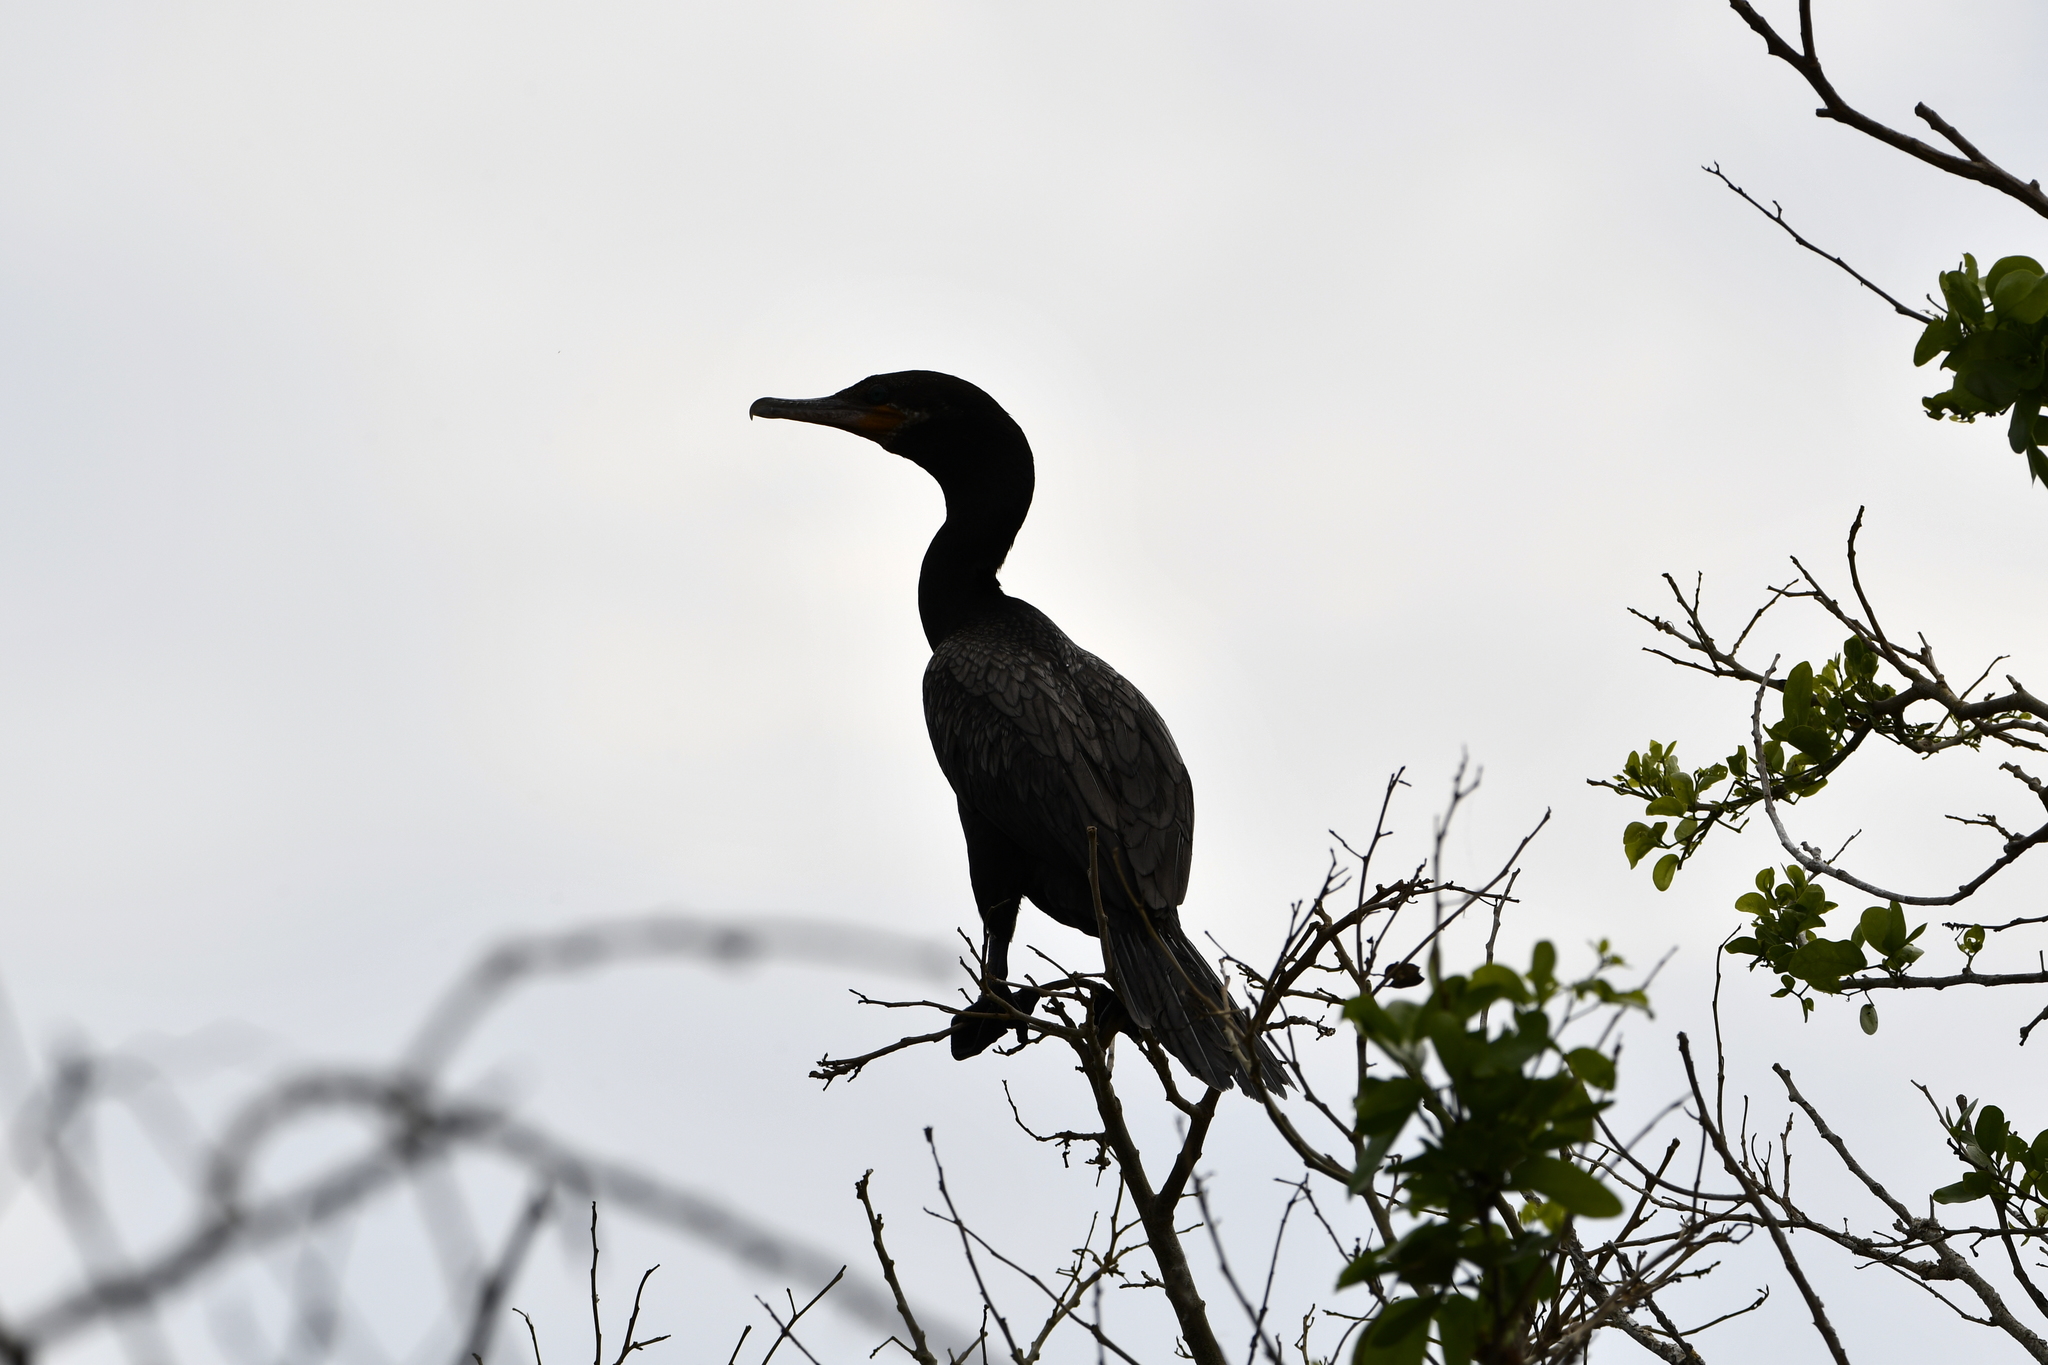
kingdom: Animalia
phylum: Chordata
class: Aves
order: Suliformes
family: Phalacrocoracidae
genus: Phalacrocorax
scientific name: Phalacrocorax brasilianus
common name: Neotropic cormorant
